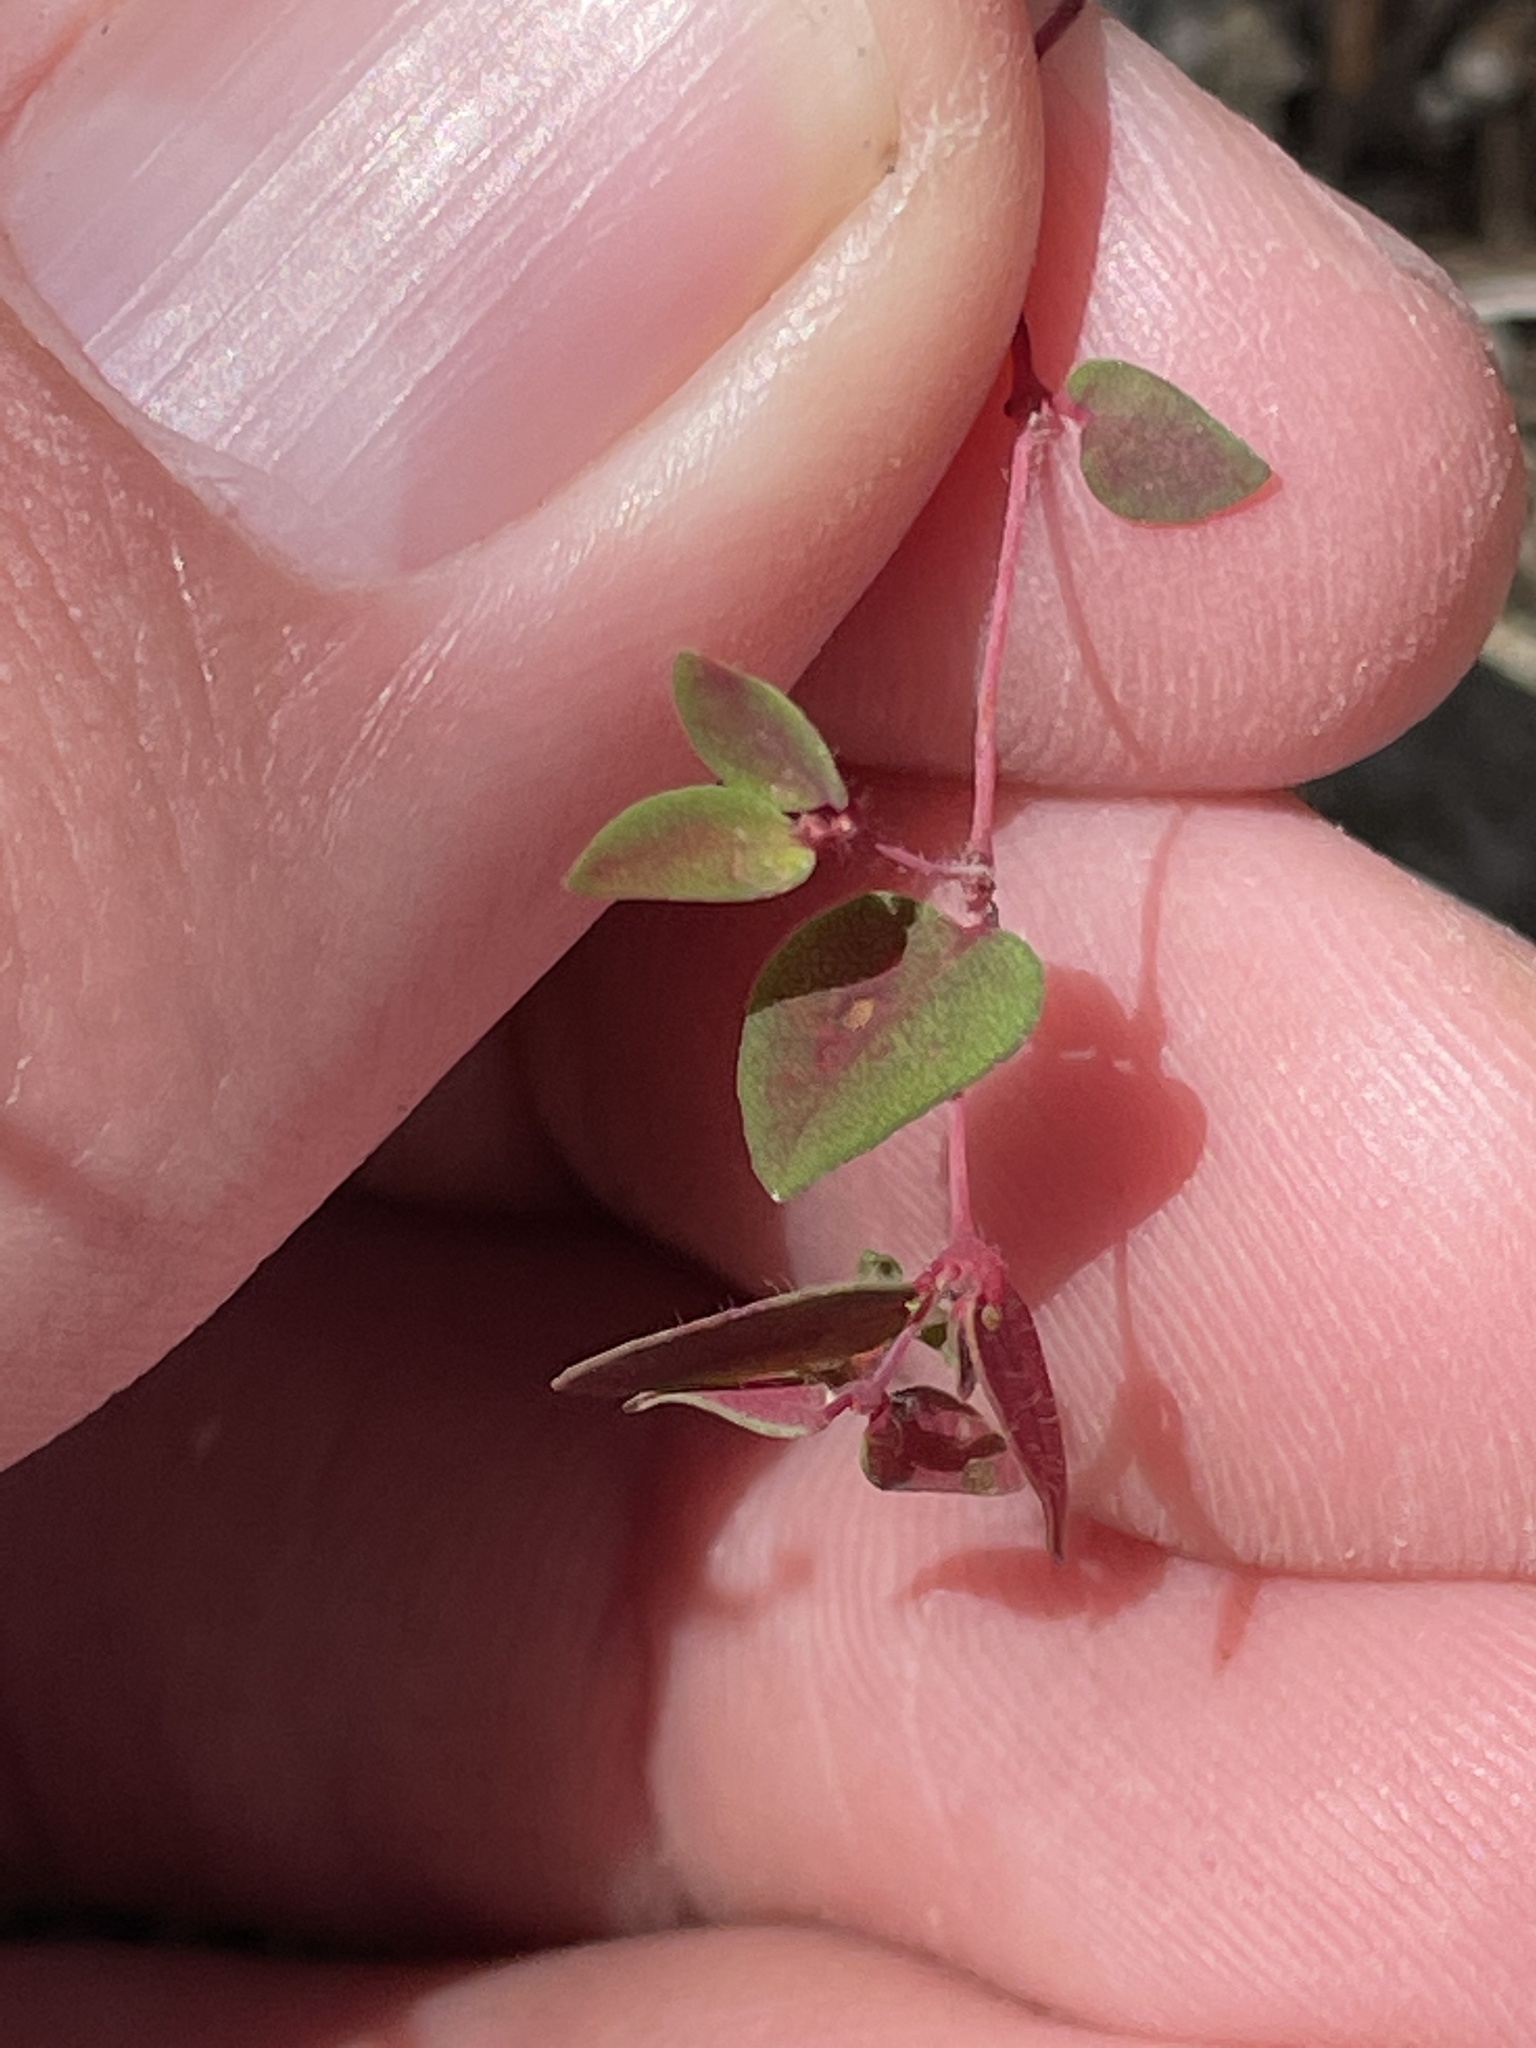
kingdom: Plantae
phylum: Tracheophyta
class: Magnoliopsida
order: Malpighiales
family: Euphorbiaceae
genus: Euphorbia
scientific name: Euphorbia villifera
